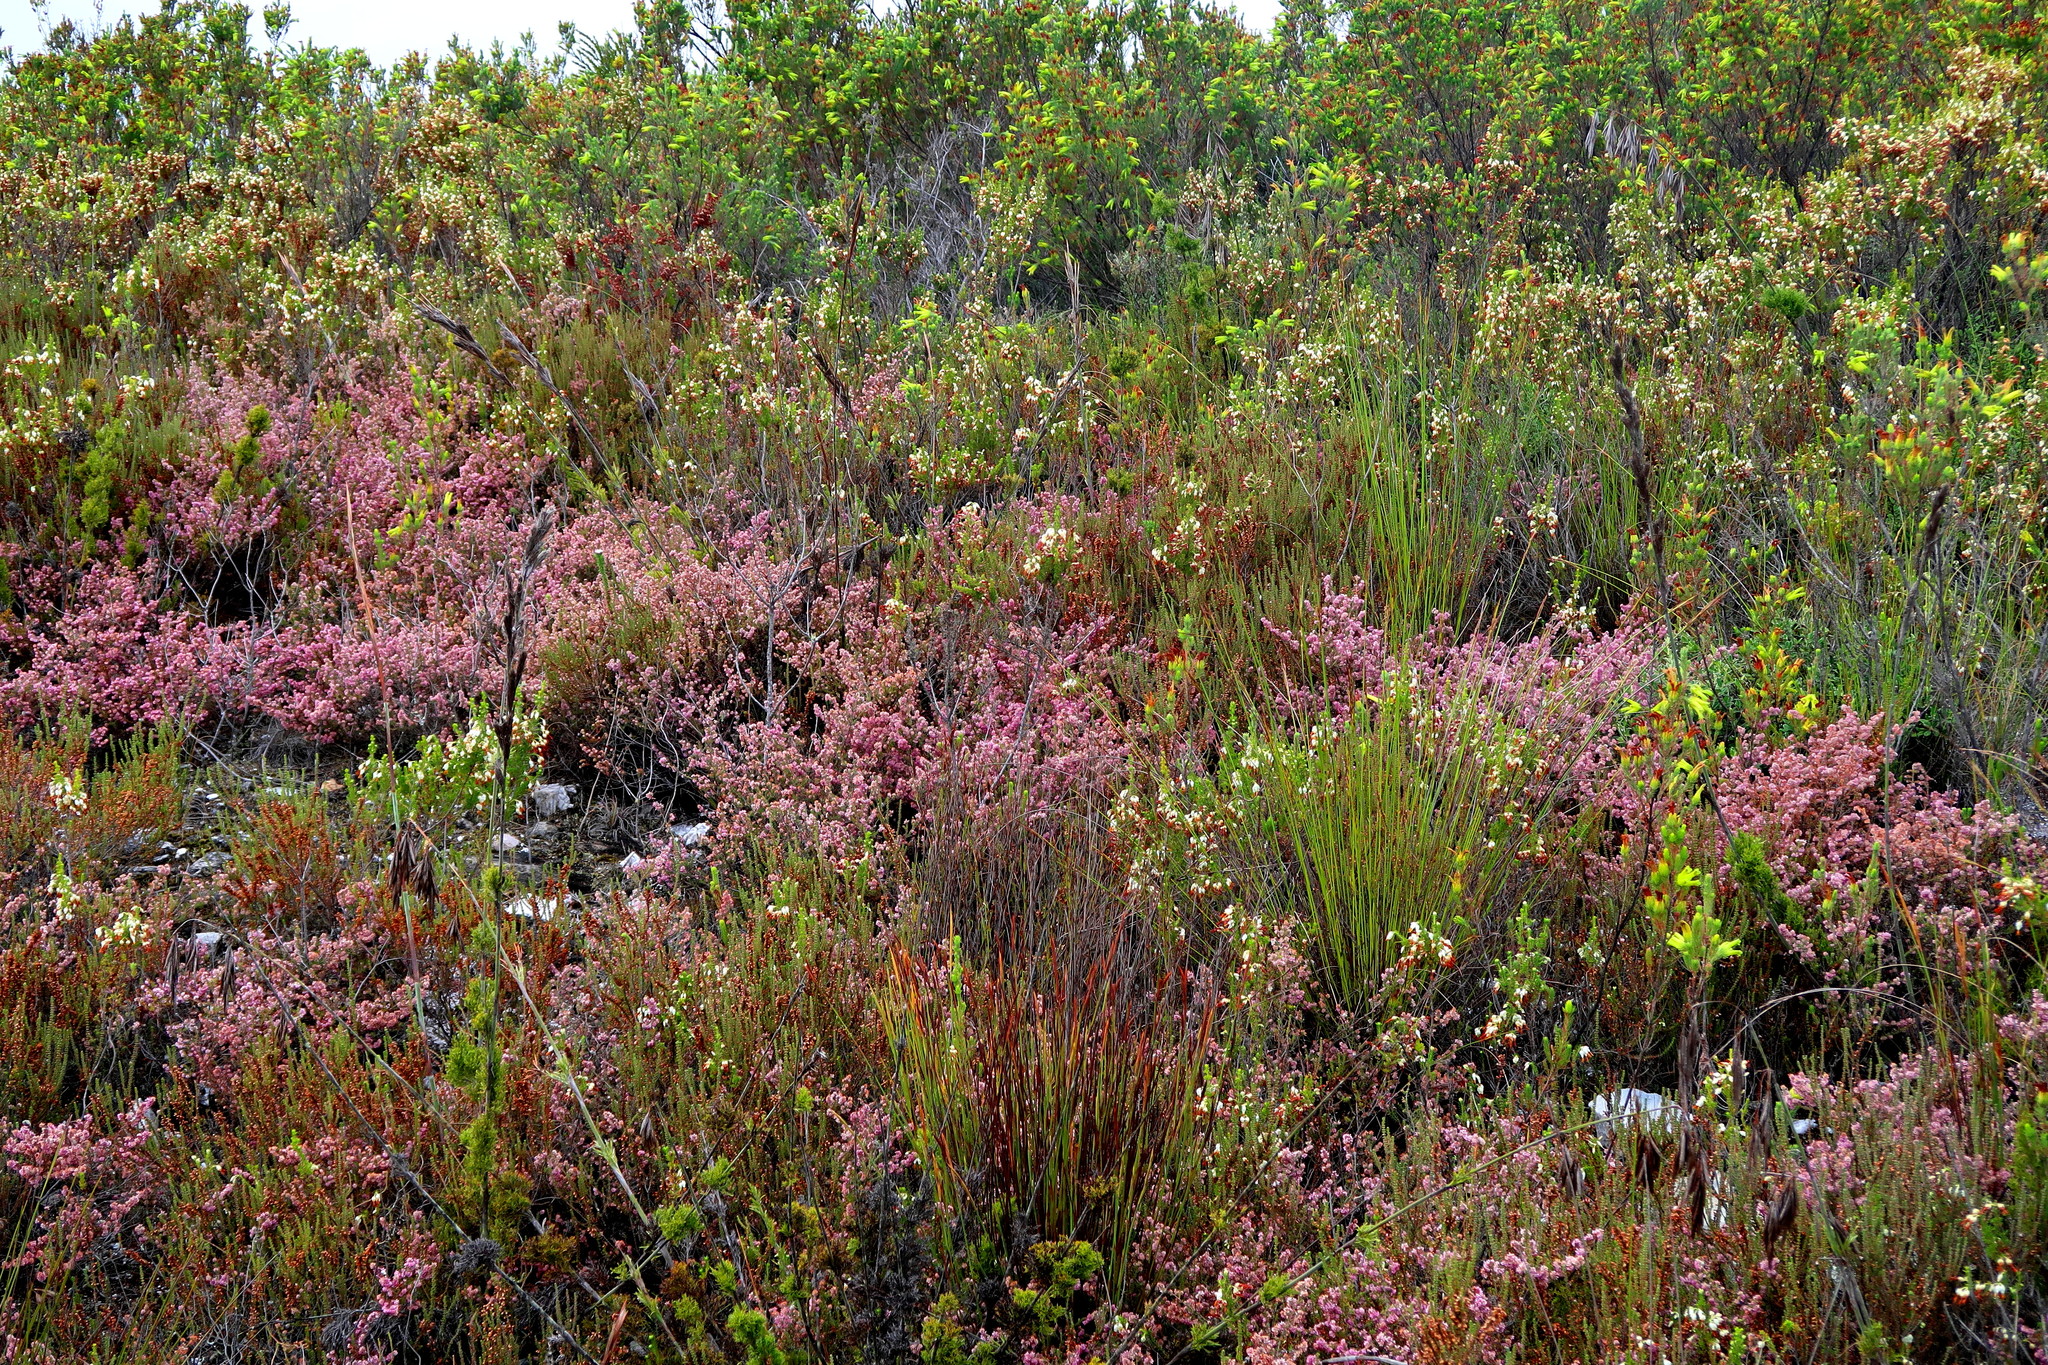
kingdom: Plantae
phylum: Tracheophyta
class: Magnoliopsida
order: Ericales
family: Ericaceae
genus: Erica
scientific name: Erica similis
